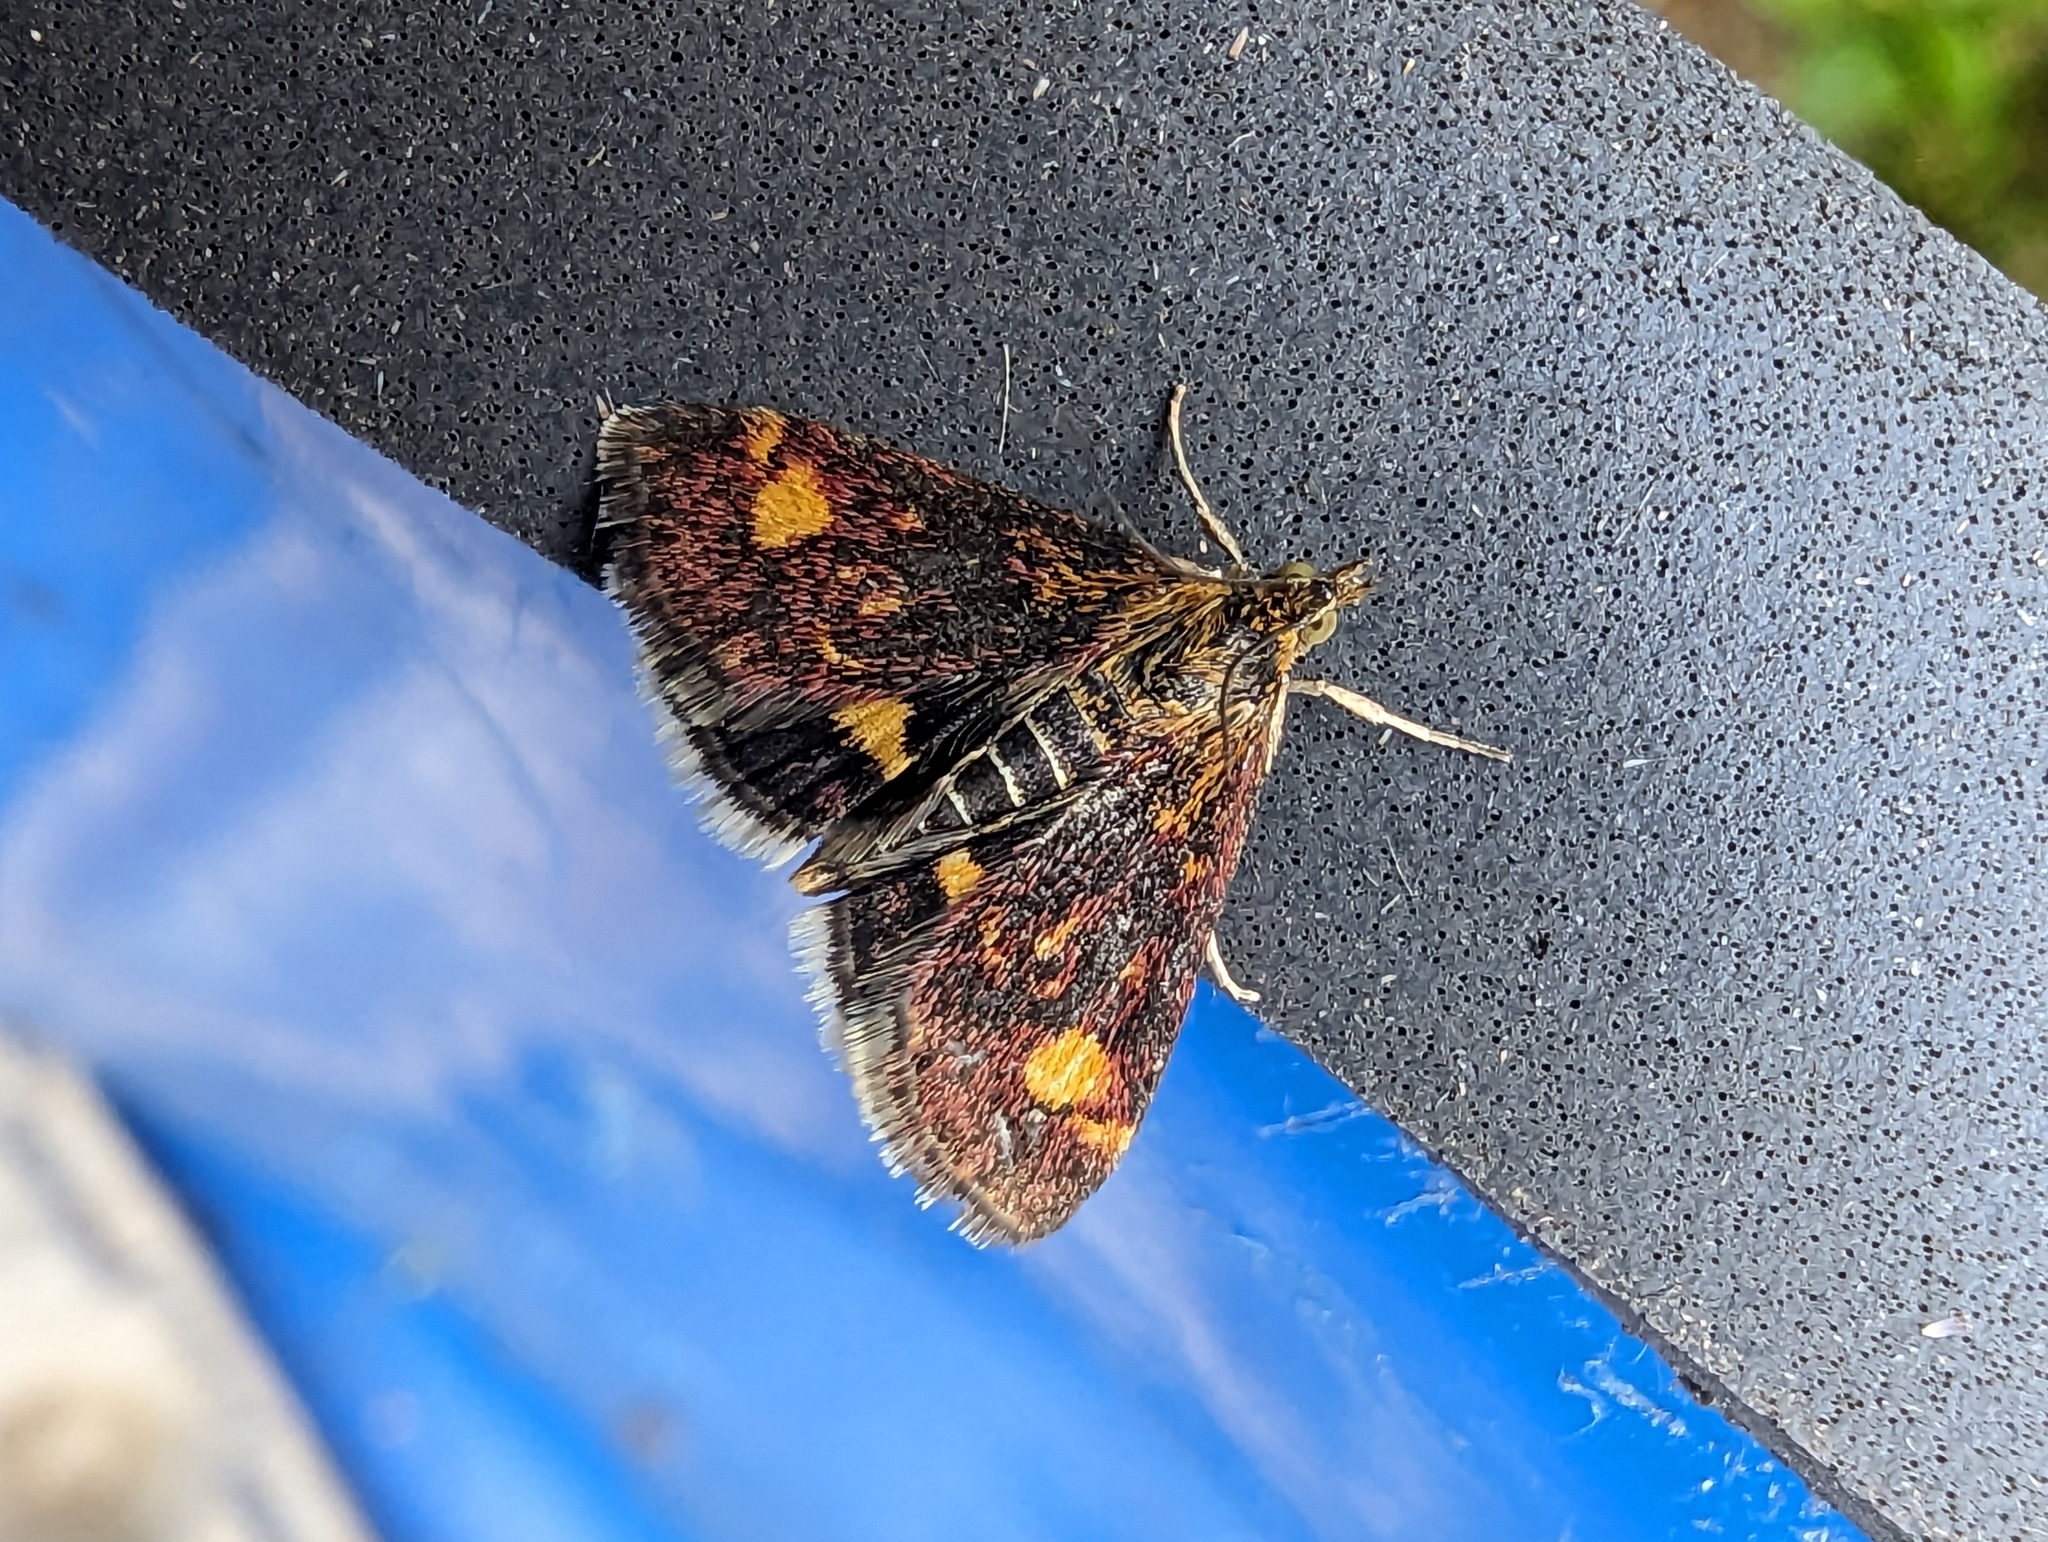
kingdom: Animalia
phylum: Arthropoda
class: Insecta
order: Lepidoptera
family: Crambidae
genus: Pyrausta
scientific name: Pyrausta aurata
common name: Small purple & gold
